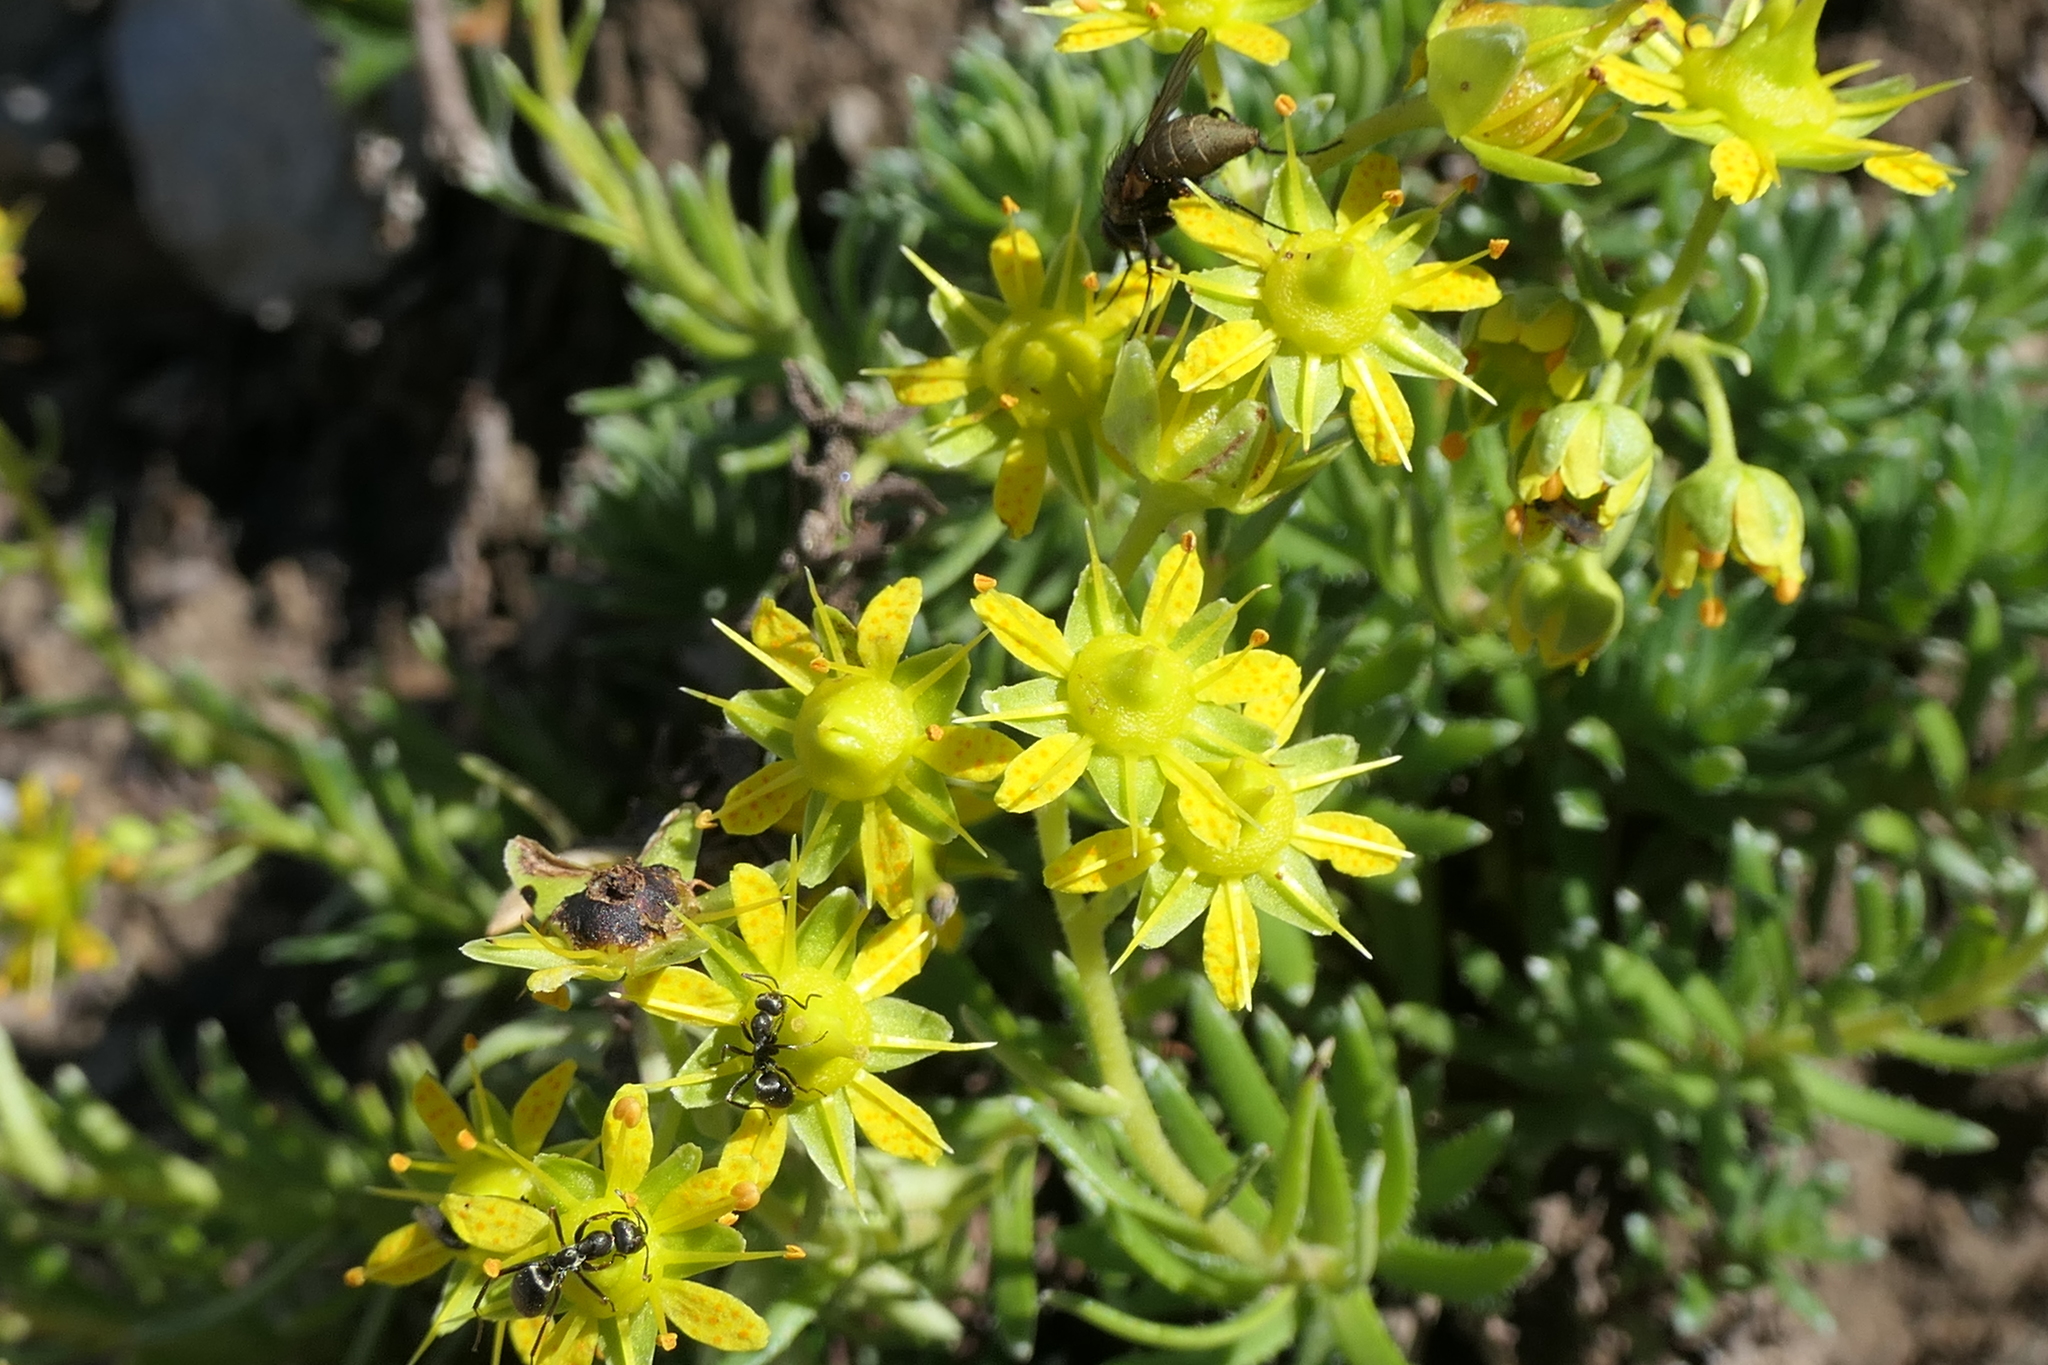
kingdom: Plantae
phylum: Tracheophyta
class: Magnoliopsida
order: Saxifragales
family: Saxifragaceae
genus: Saxifraga
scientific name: Saxifraga aizoides
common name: Yellow mountain saxifrage
